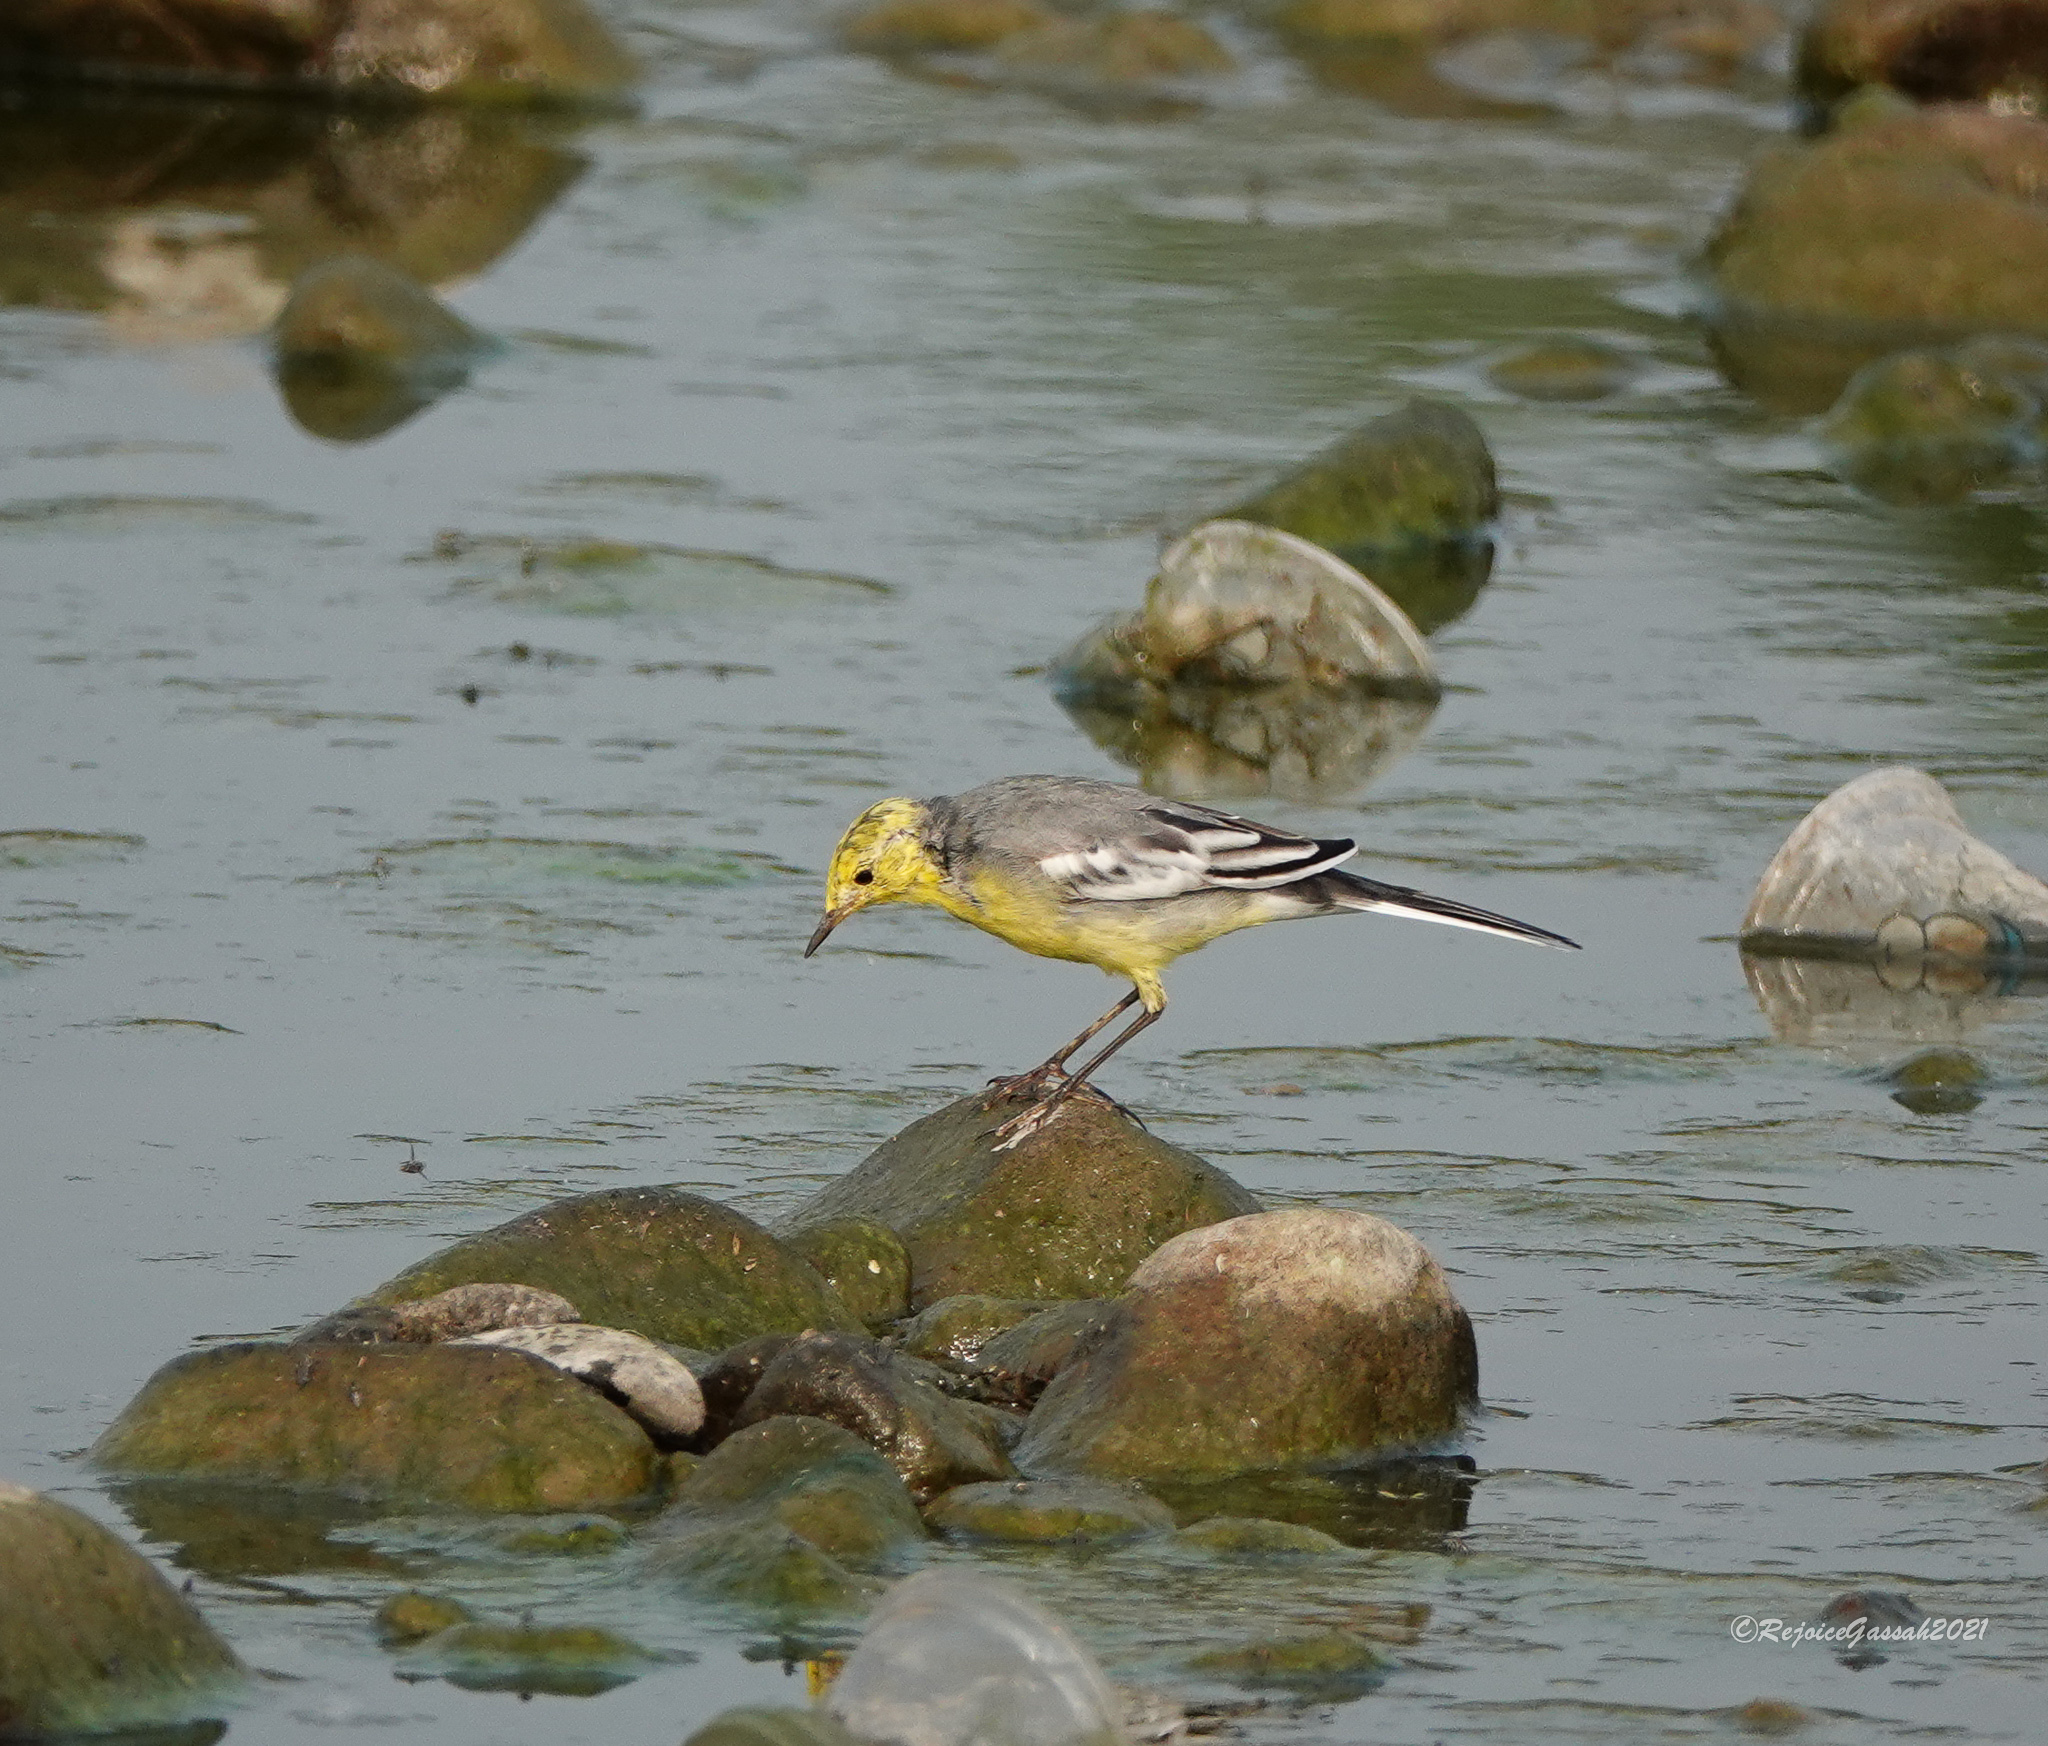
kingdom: Animalia
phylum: Chordata
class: Aves
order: Passeriformes
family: Motacillidae
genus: Motacilla
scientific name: Motacilla citreola
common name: Citrine wagtail
